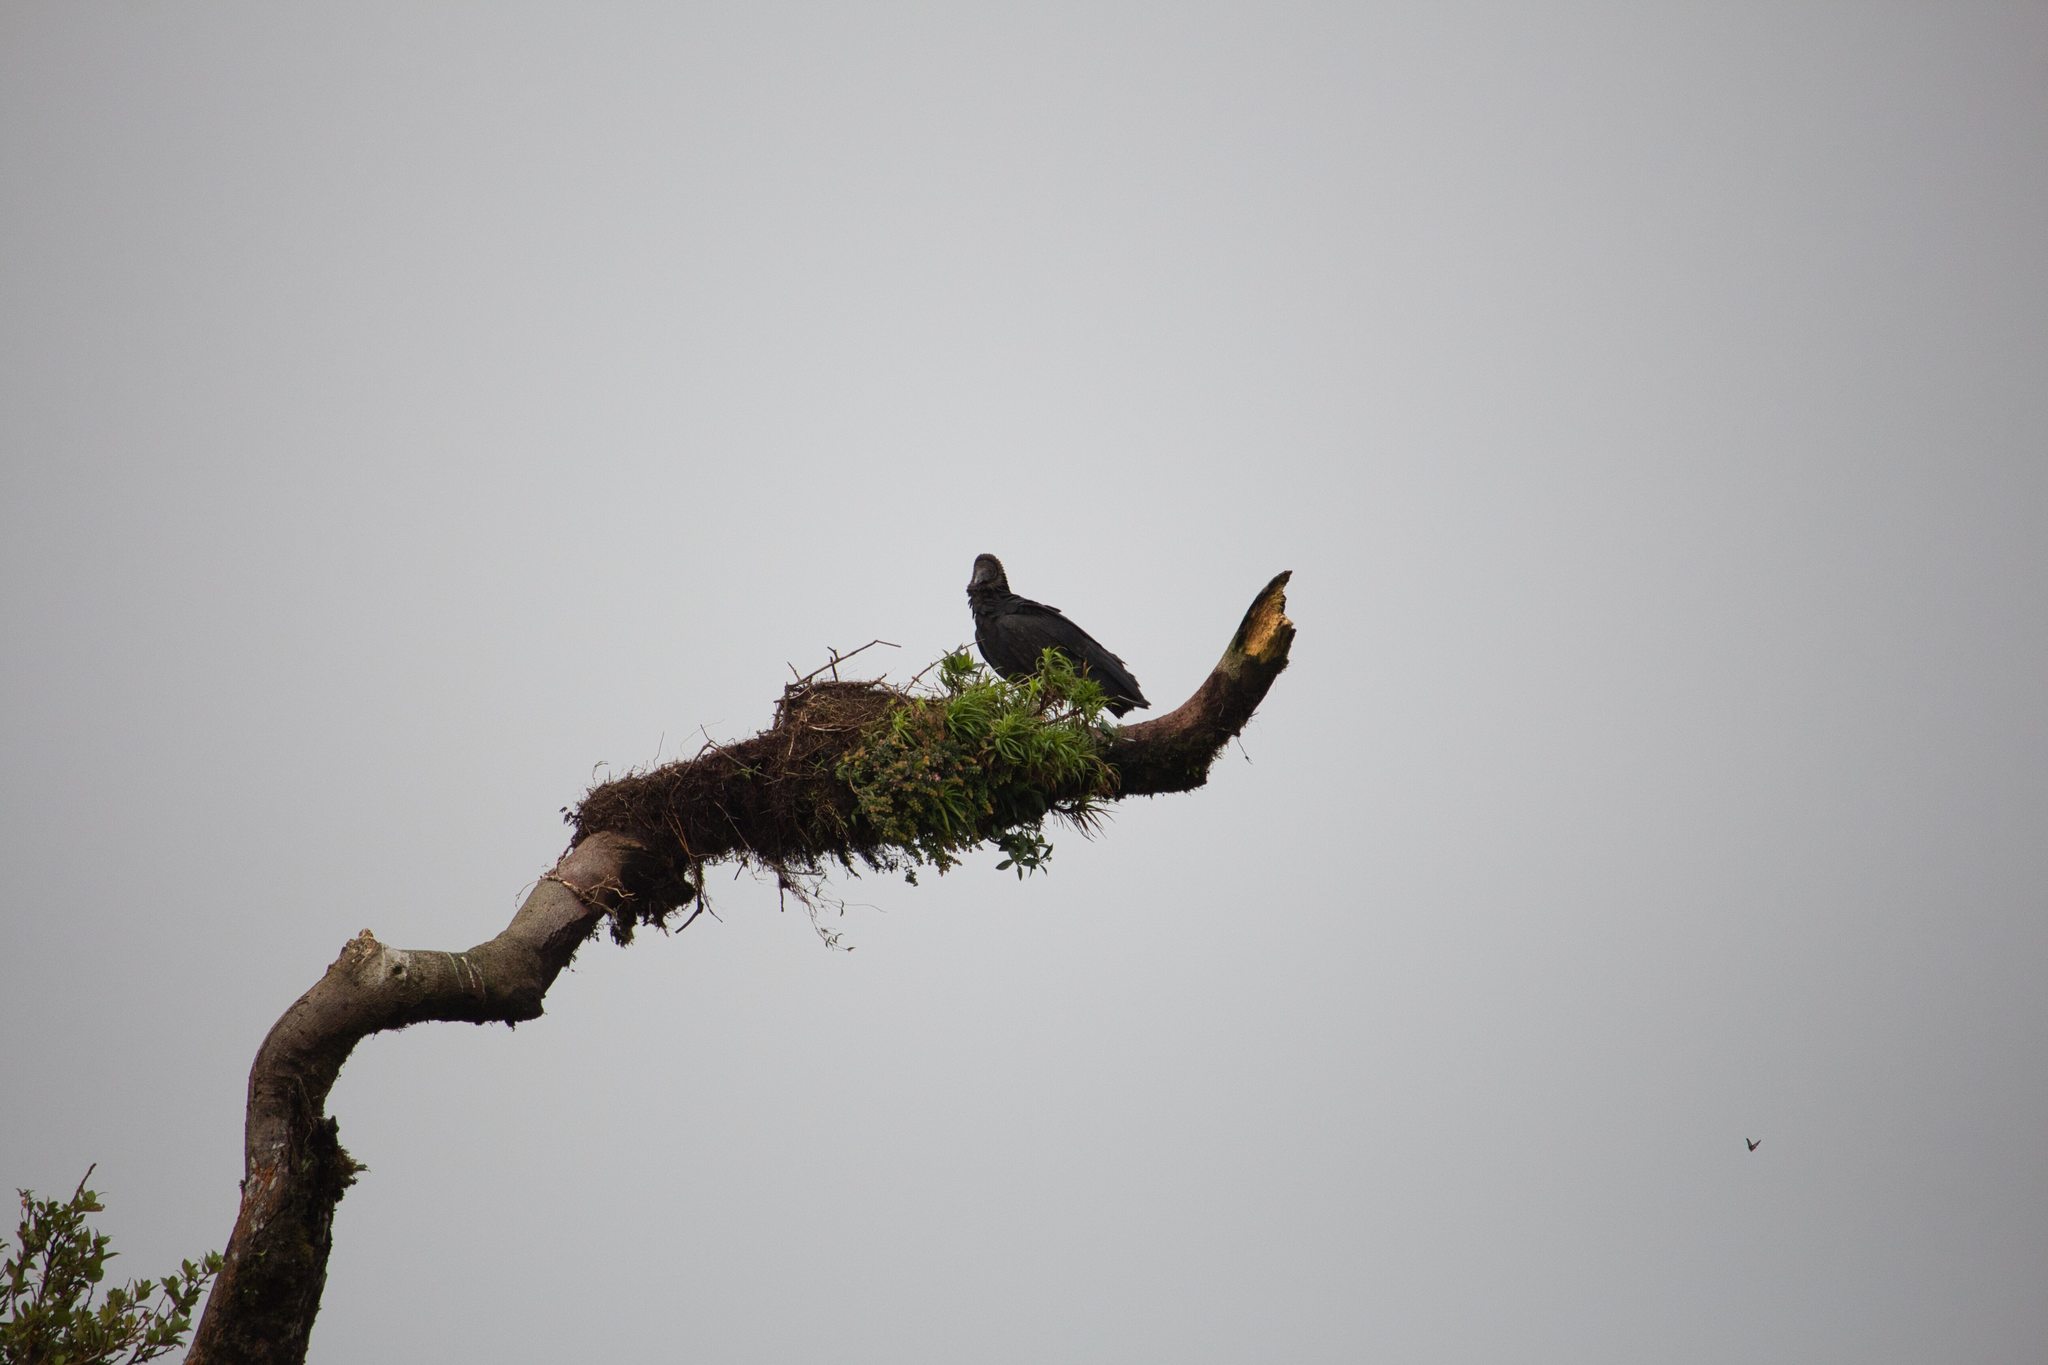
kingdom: Animalia
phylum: Chordata
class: Aves
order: Accipitriformes
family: Cathartidae
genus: Coragyps
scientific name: Coragyps atratus
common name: Black vulture
